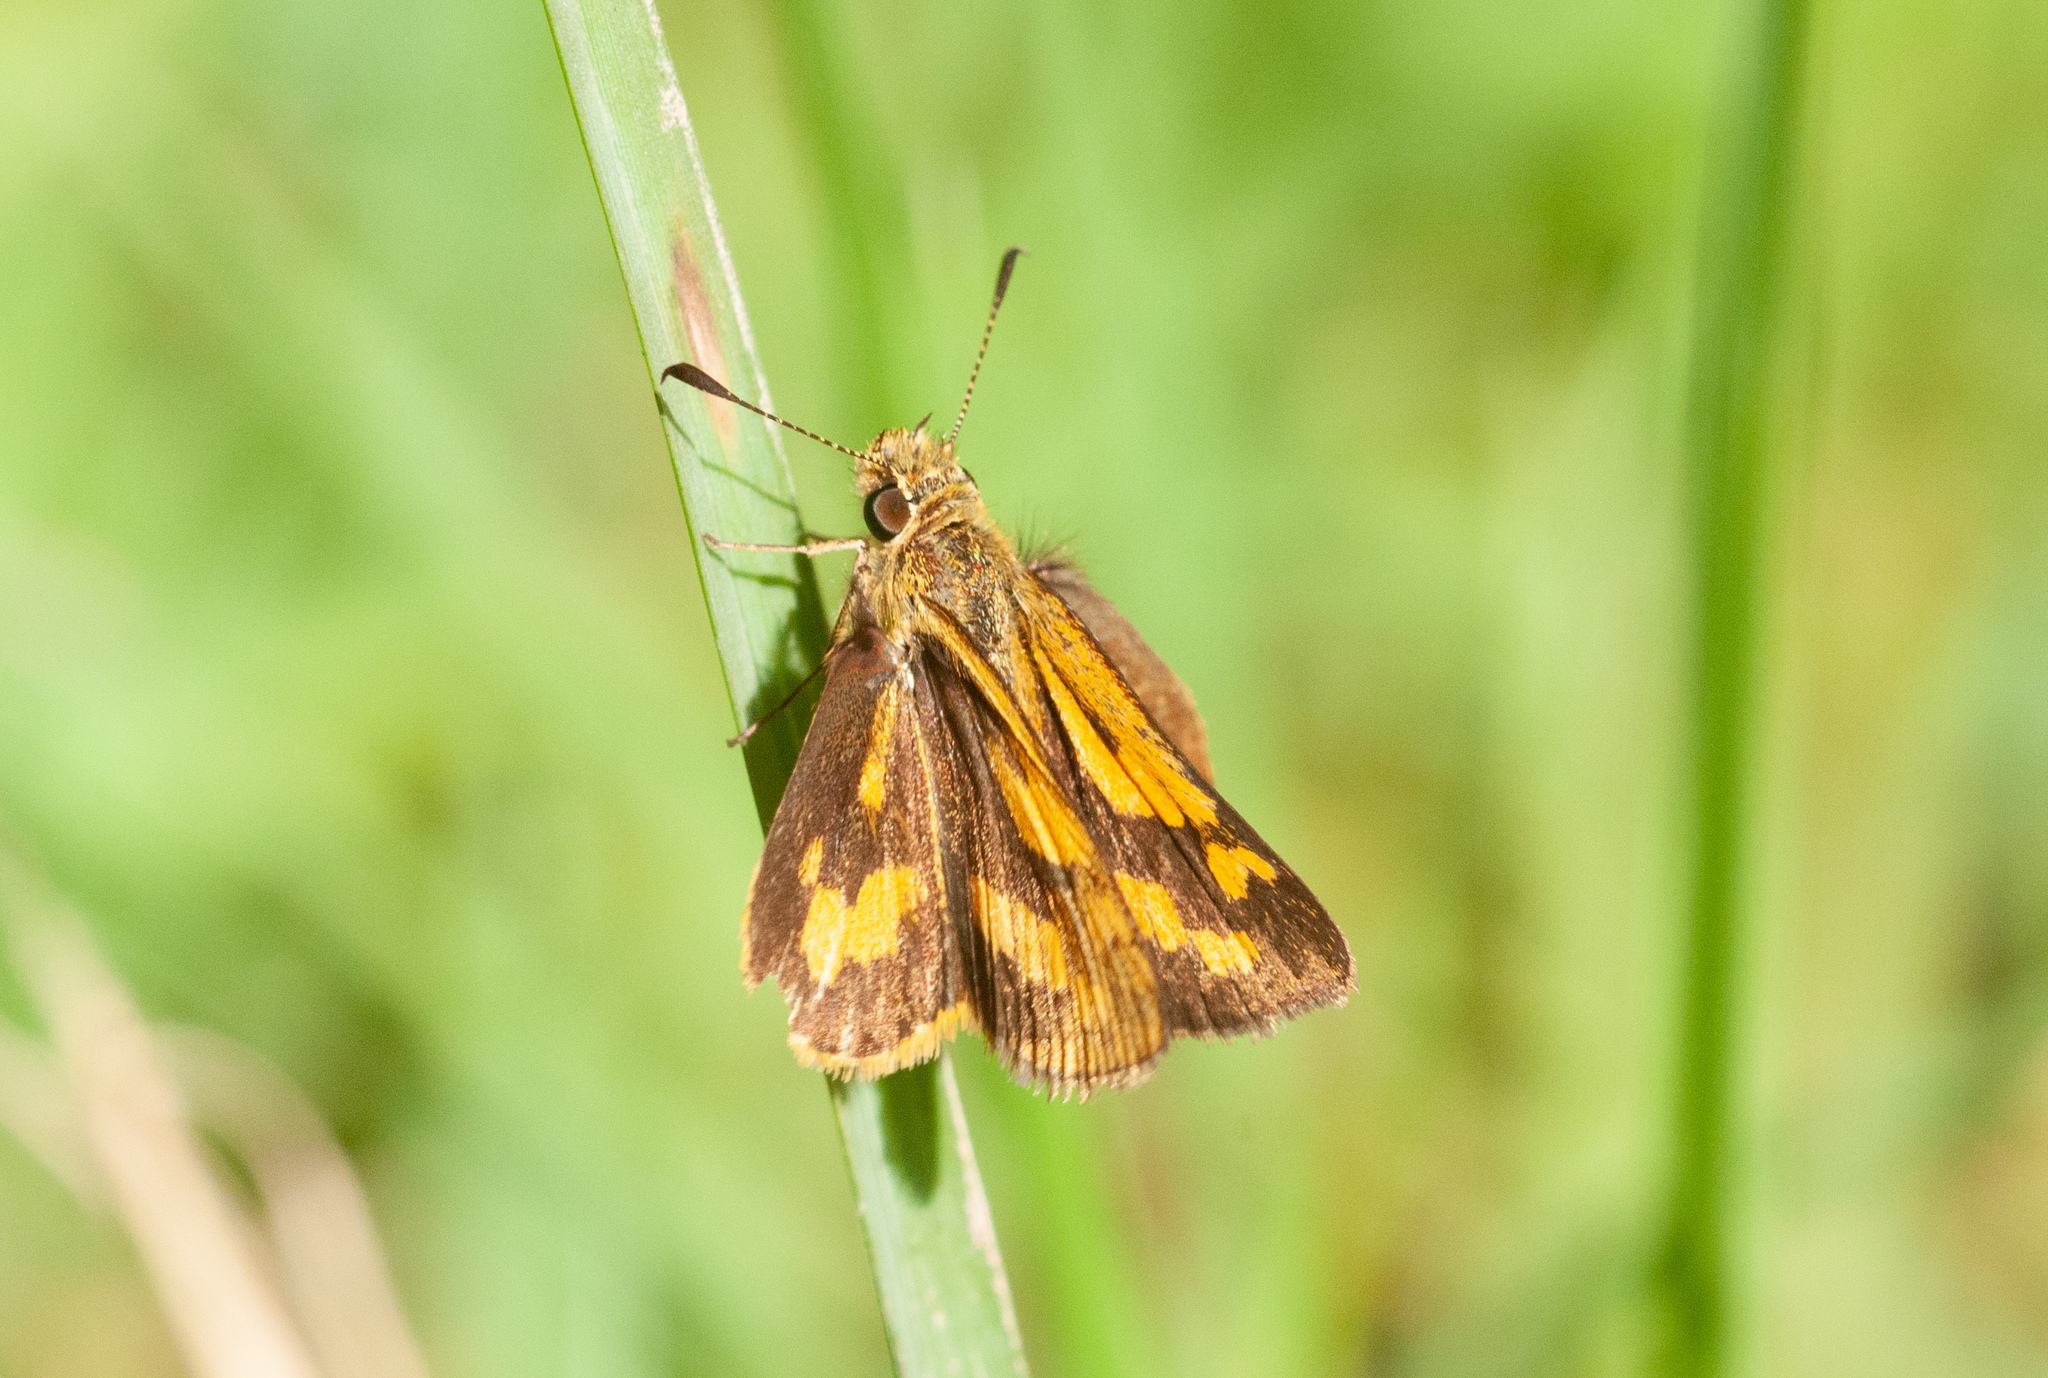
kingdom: Animalia
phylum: Arthropoda
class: Insecta
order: Lepidoptera
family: Hesperiidae
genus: Ocybadistes
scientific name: Ocybadistes walkeri
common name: Yellow-banded dart
